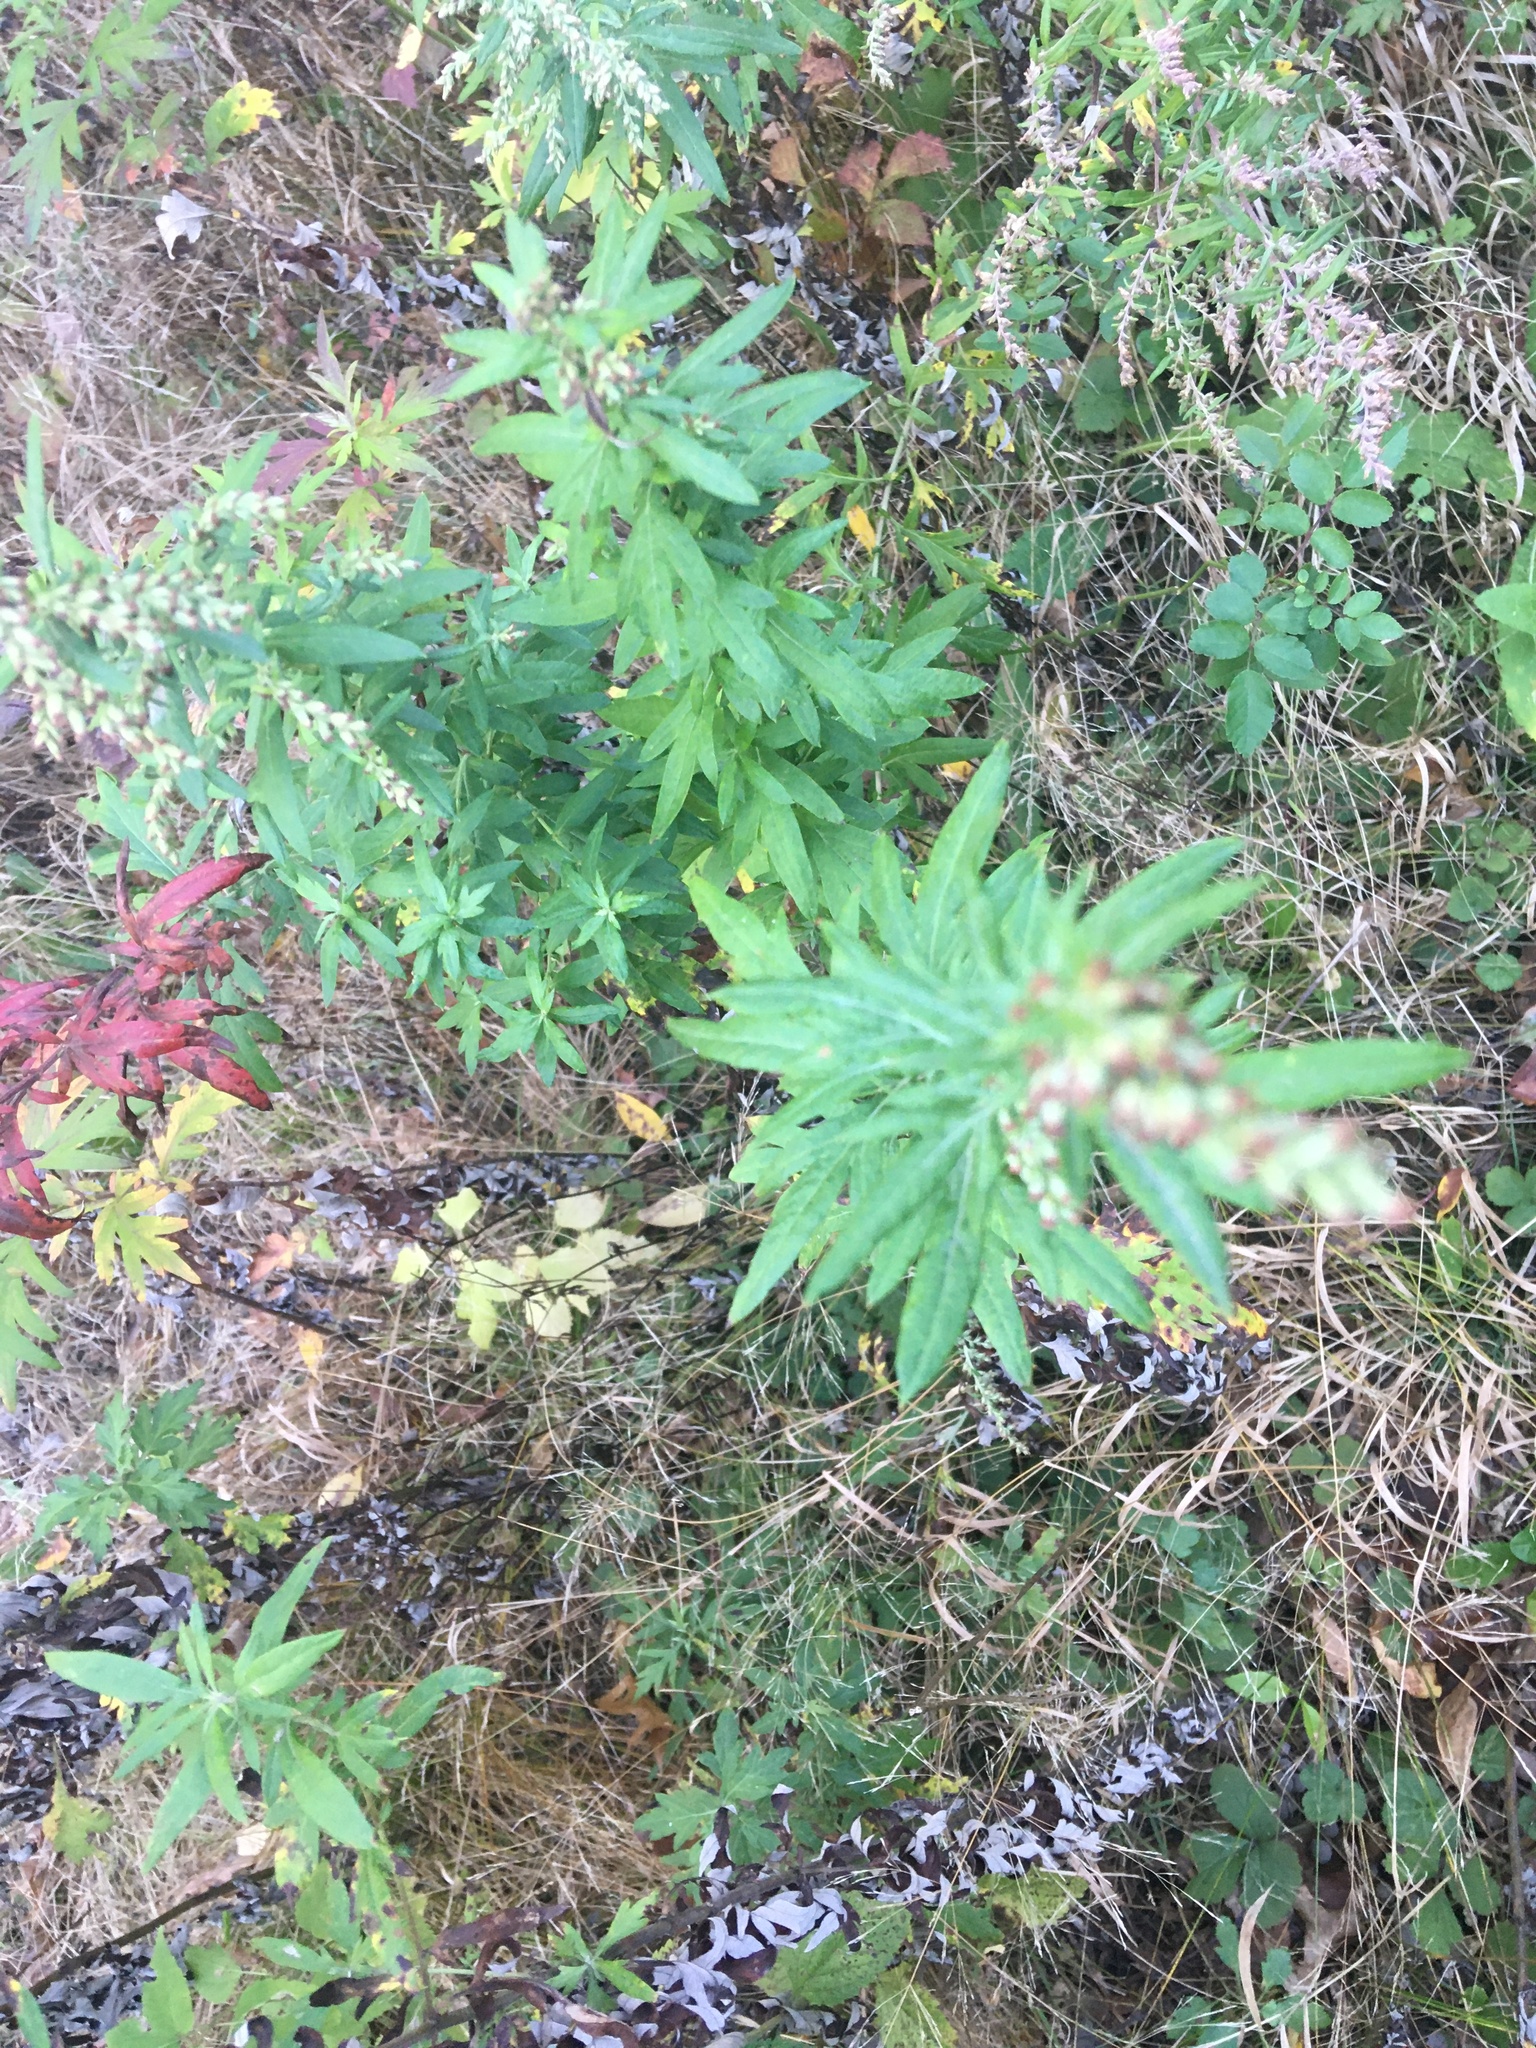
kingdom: Plantae
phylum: Tracheophyta
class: Magnoliopsida
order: Asterales
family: Asteraceae
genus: Artemisia
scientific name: Artemisia vulgaris
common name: Mugwort
